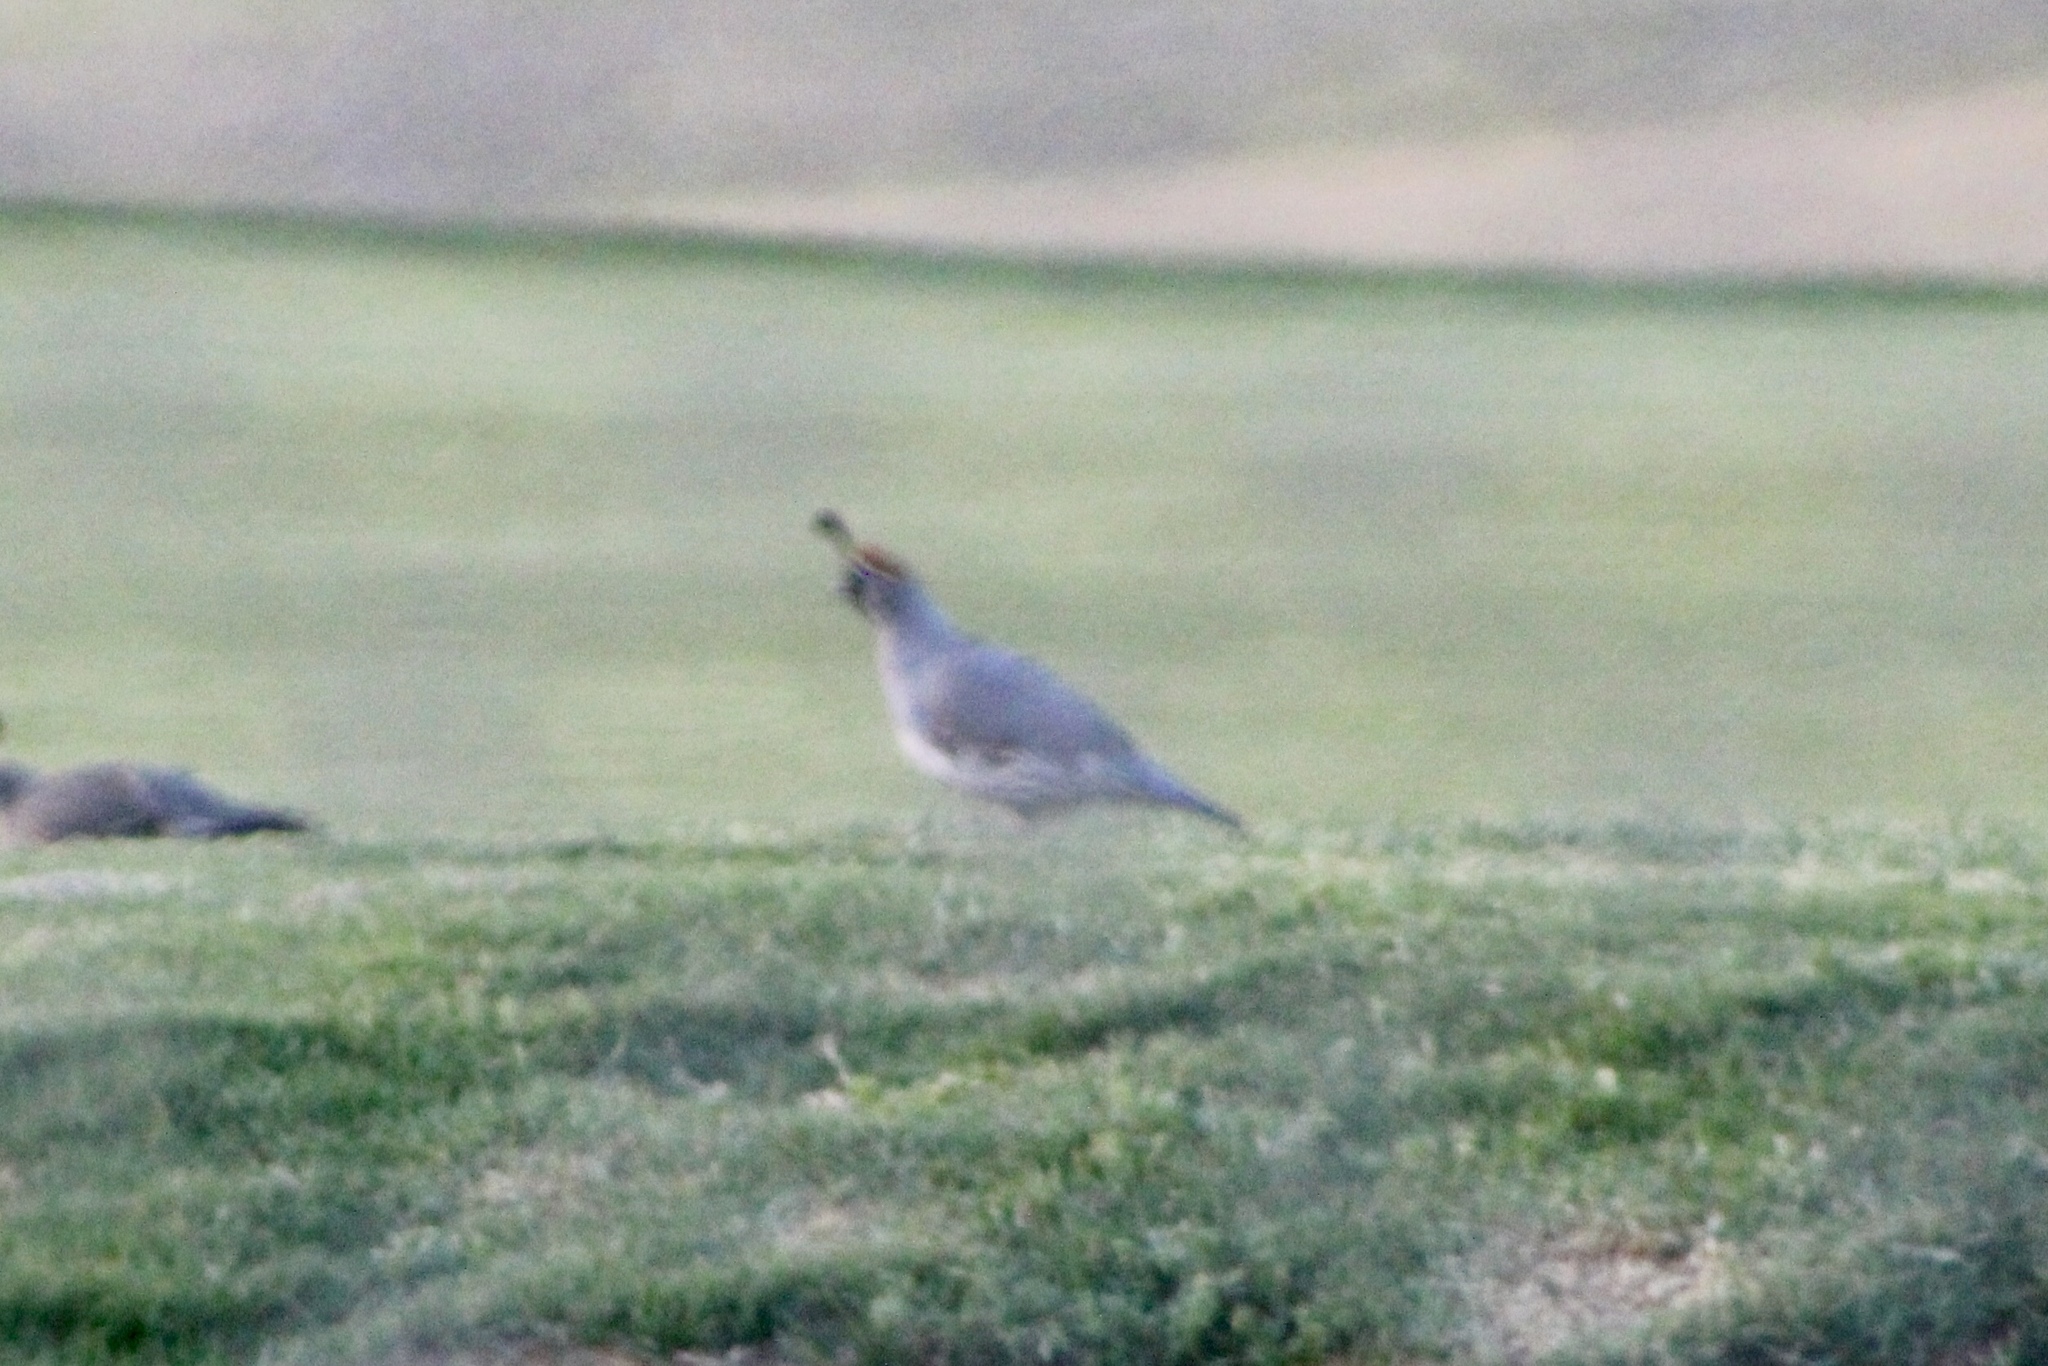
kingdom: Animalia
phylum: Chordata
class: Aves
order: Galliformes
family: Odontophoridae
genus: Callipepla
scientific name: Callipepla gambelii
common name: Gambel's quail
